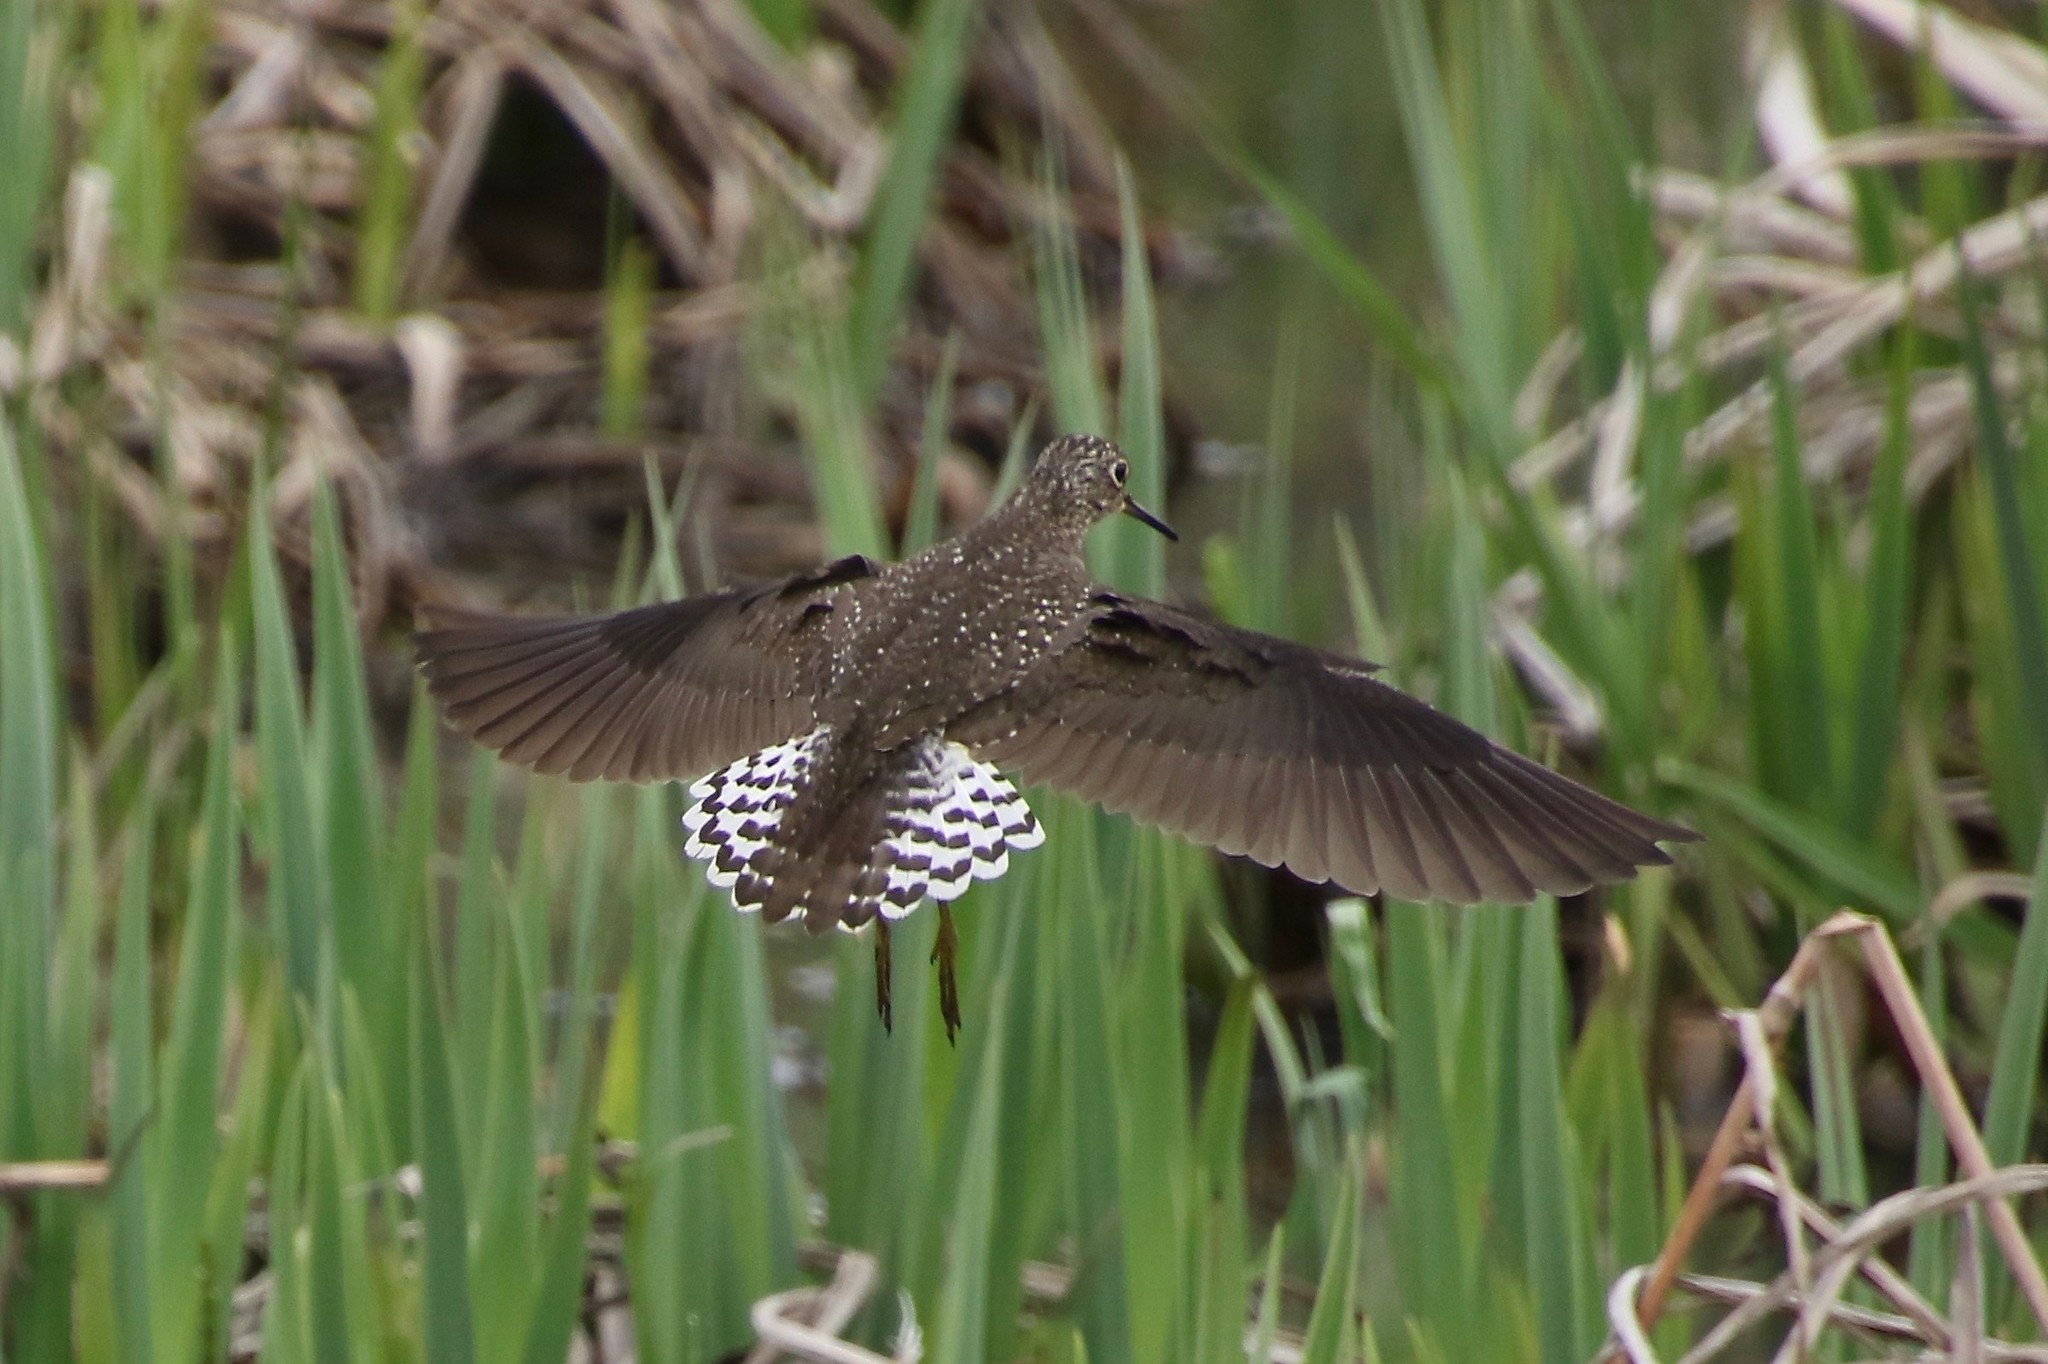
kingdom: Animalia
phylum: Chordata
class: Aves
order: Charadriiformes
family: Scolopacidae
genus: Tringa
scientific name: Tringa solitaria
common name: Solitary sandpiper
